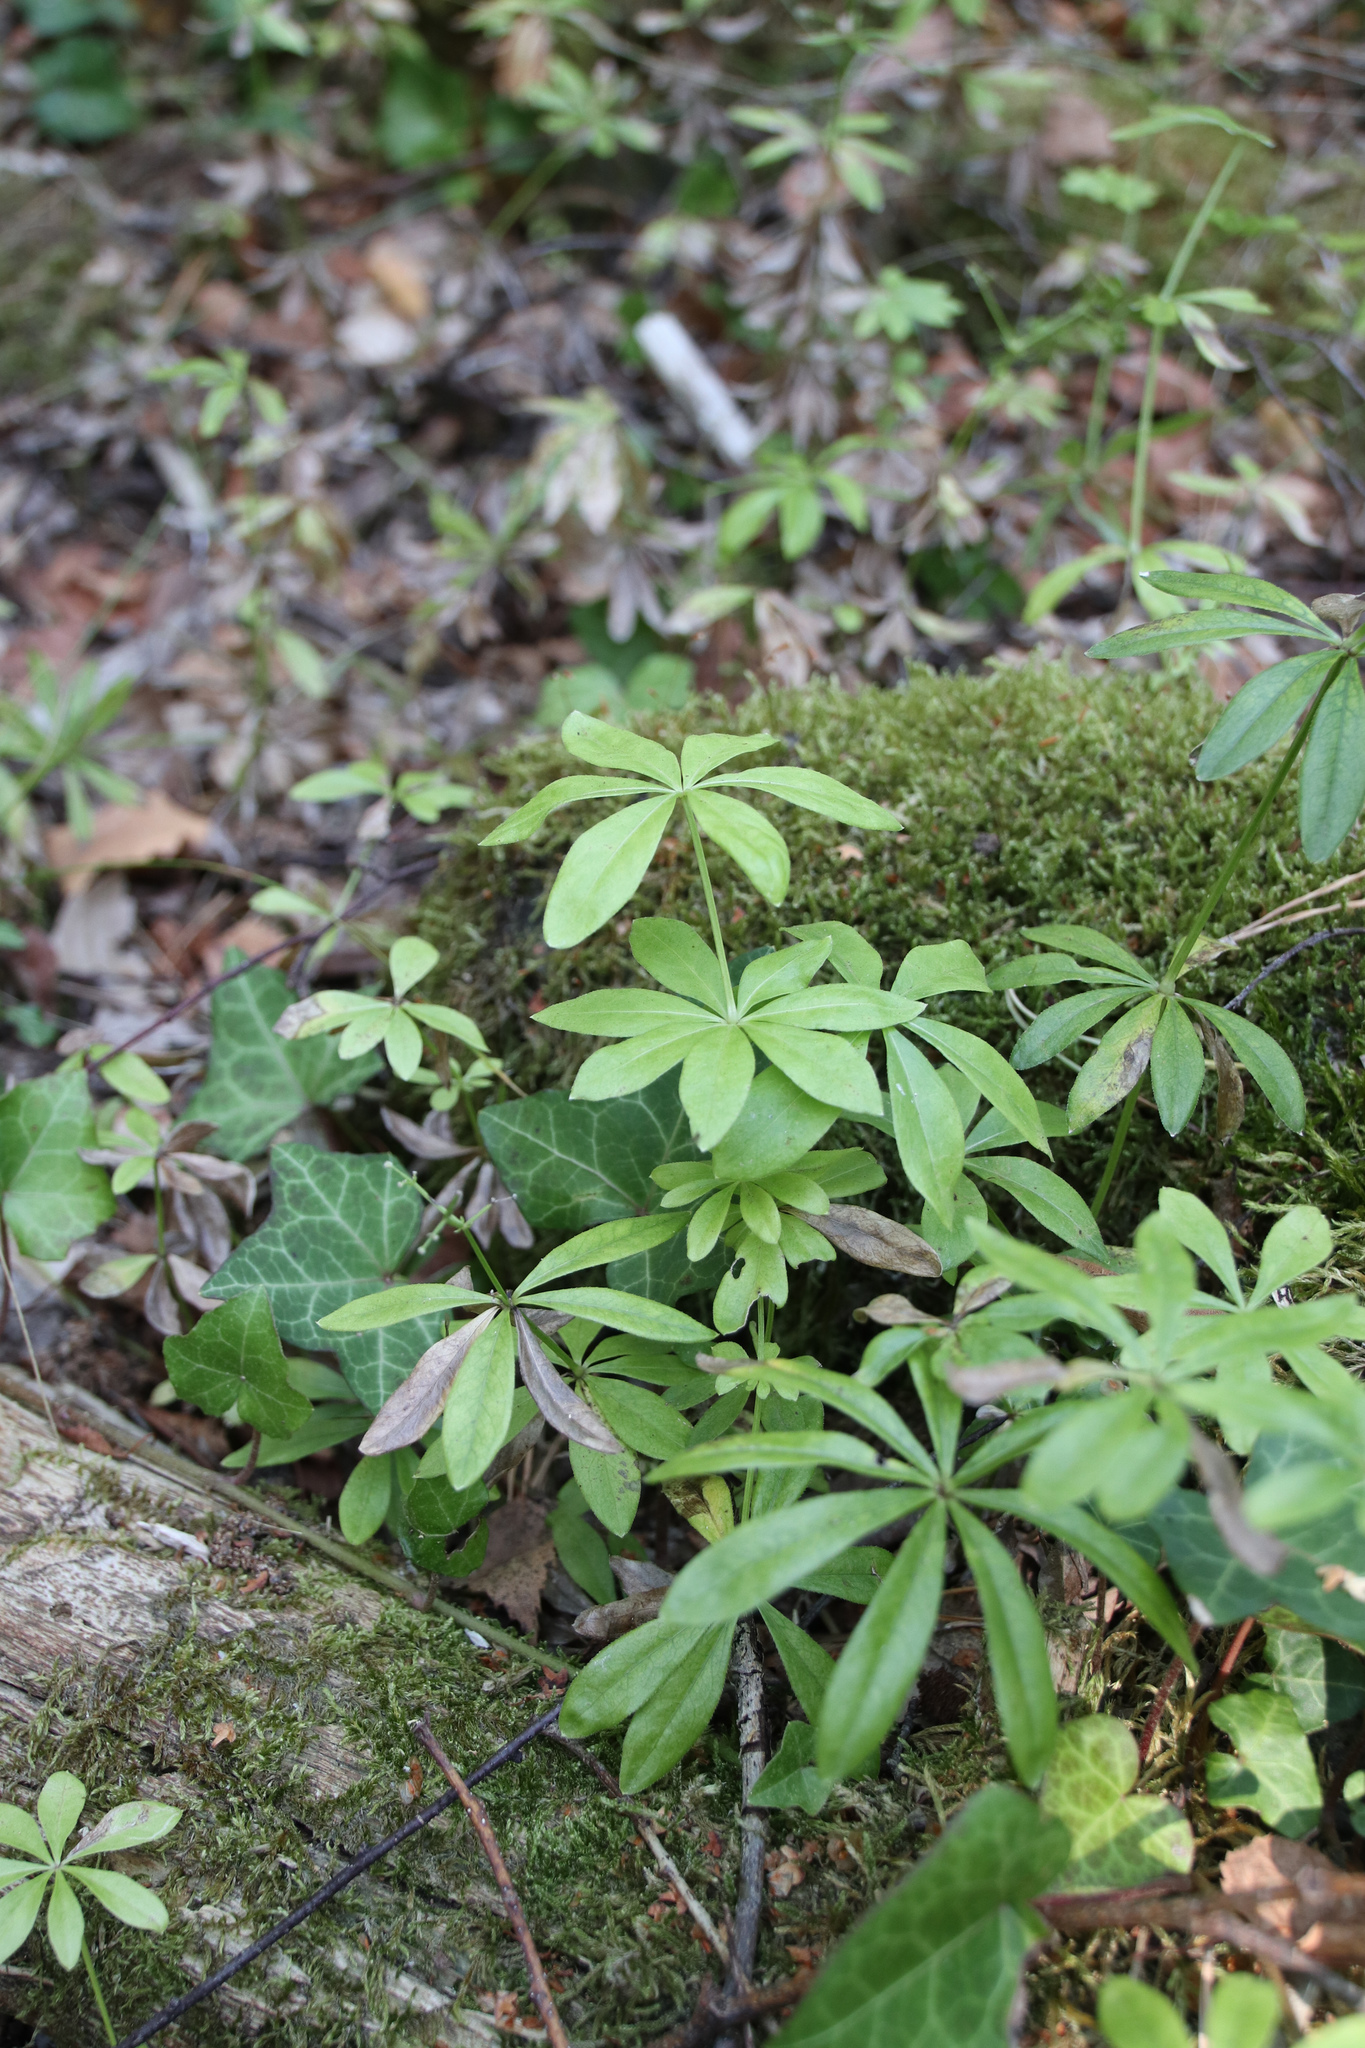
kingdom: Plantae
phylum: Tracheophyta
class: Magnoliopsida
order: Gentianales
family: Rubiaceae
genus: Galium
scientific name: Galium odoratum
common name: Sweet woodruff
